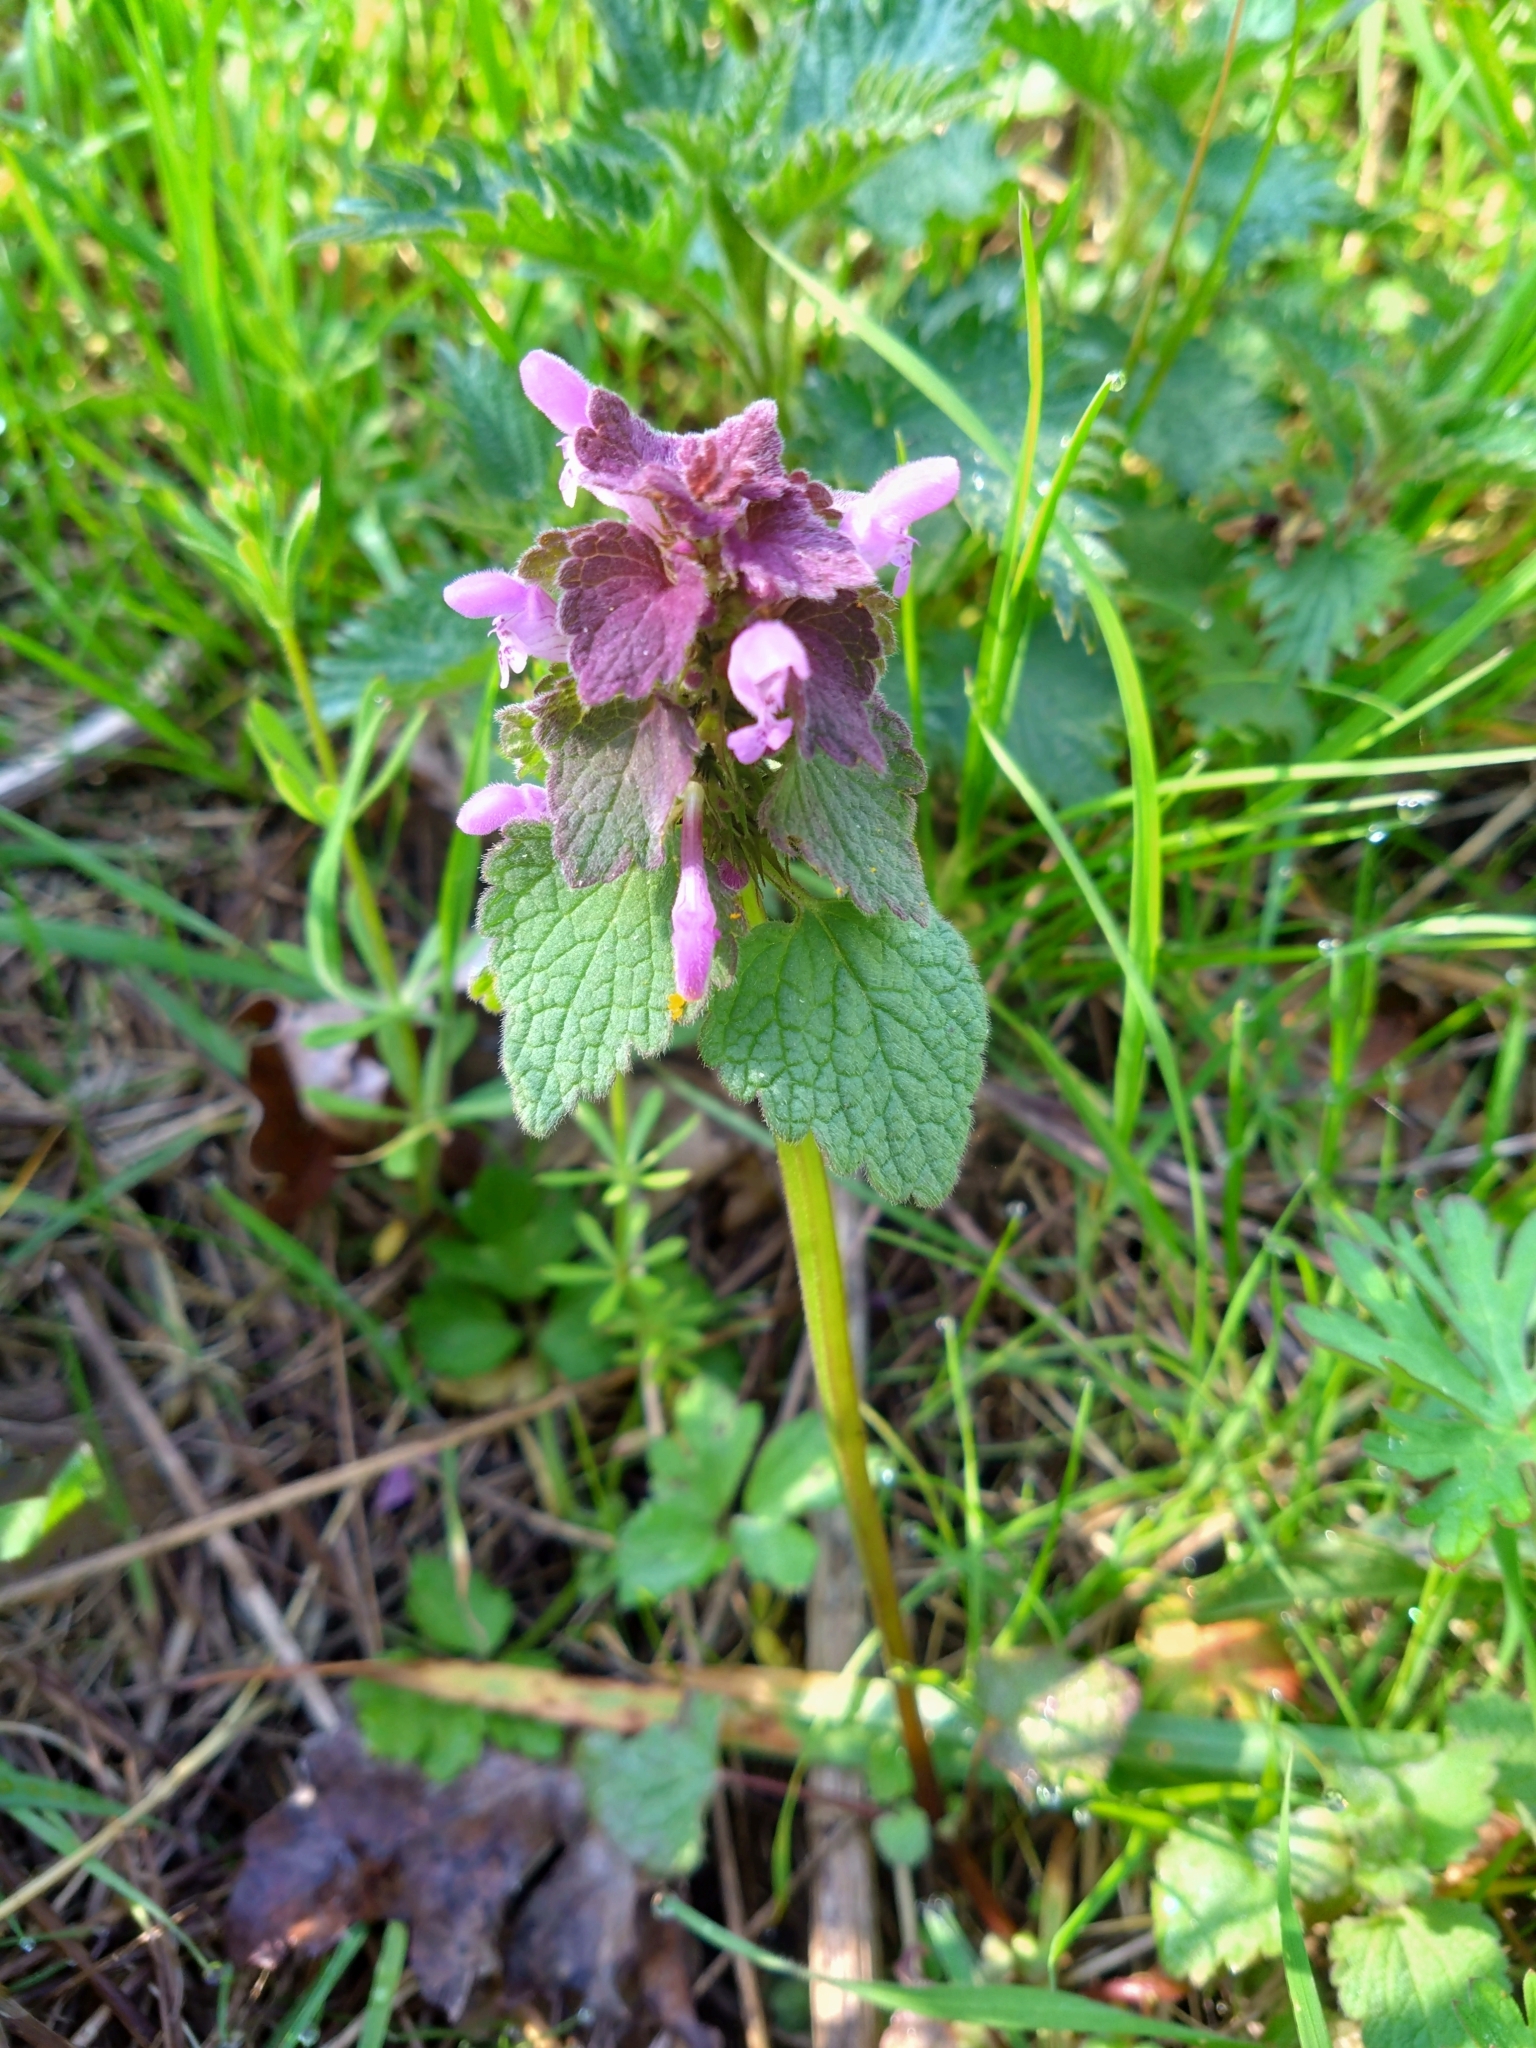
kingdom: Plantae
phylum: Tracheophyta
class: Magnoliopsida
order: Lamiales
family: Lamiaceae
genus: Lamium
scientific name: Lamium purpureum
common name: Red dead-nettle
